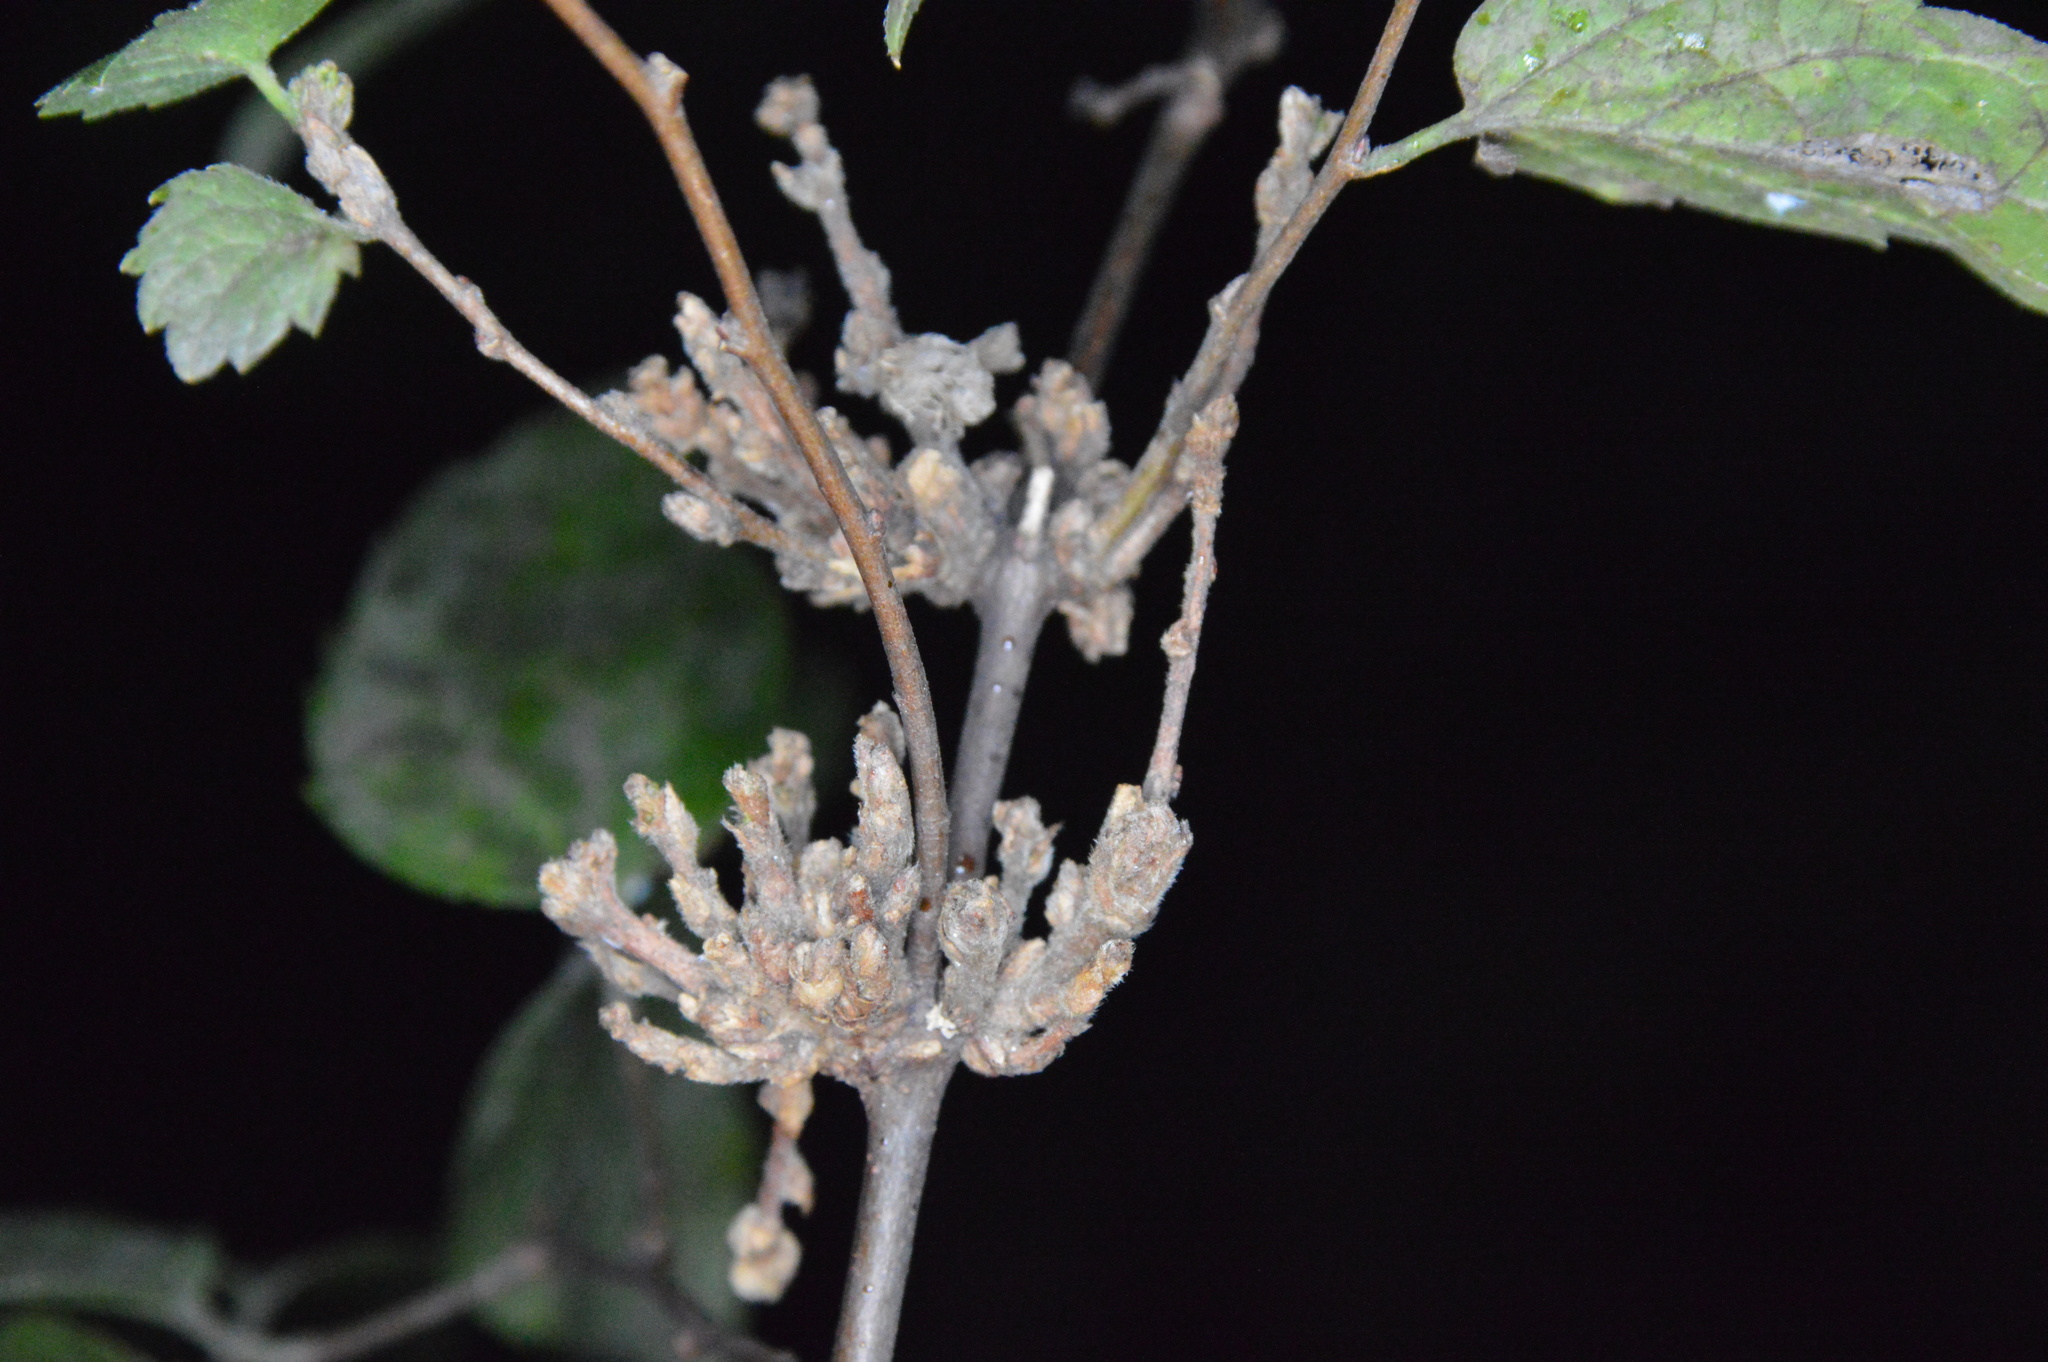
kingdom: Animalia
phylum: Arthropoda
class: Arachnida
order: Trombidiformes
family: Eriophyidae
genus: Aceria
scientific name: Aceria
